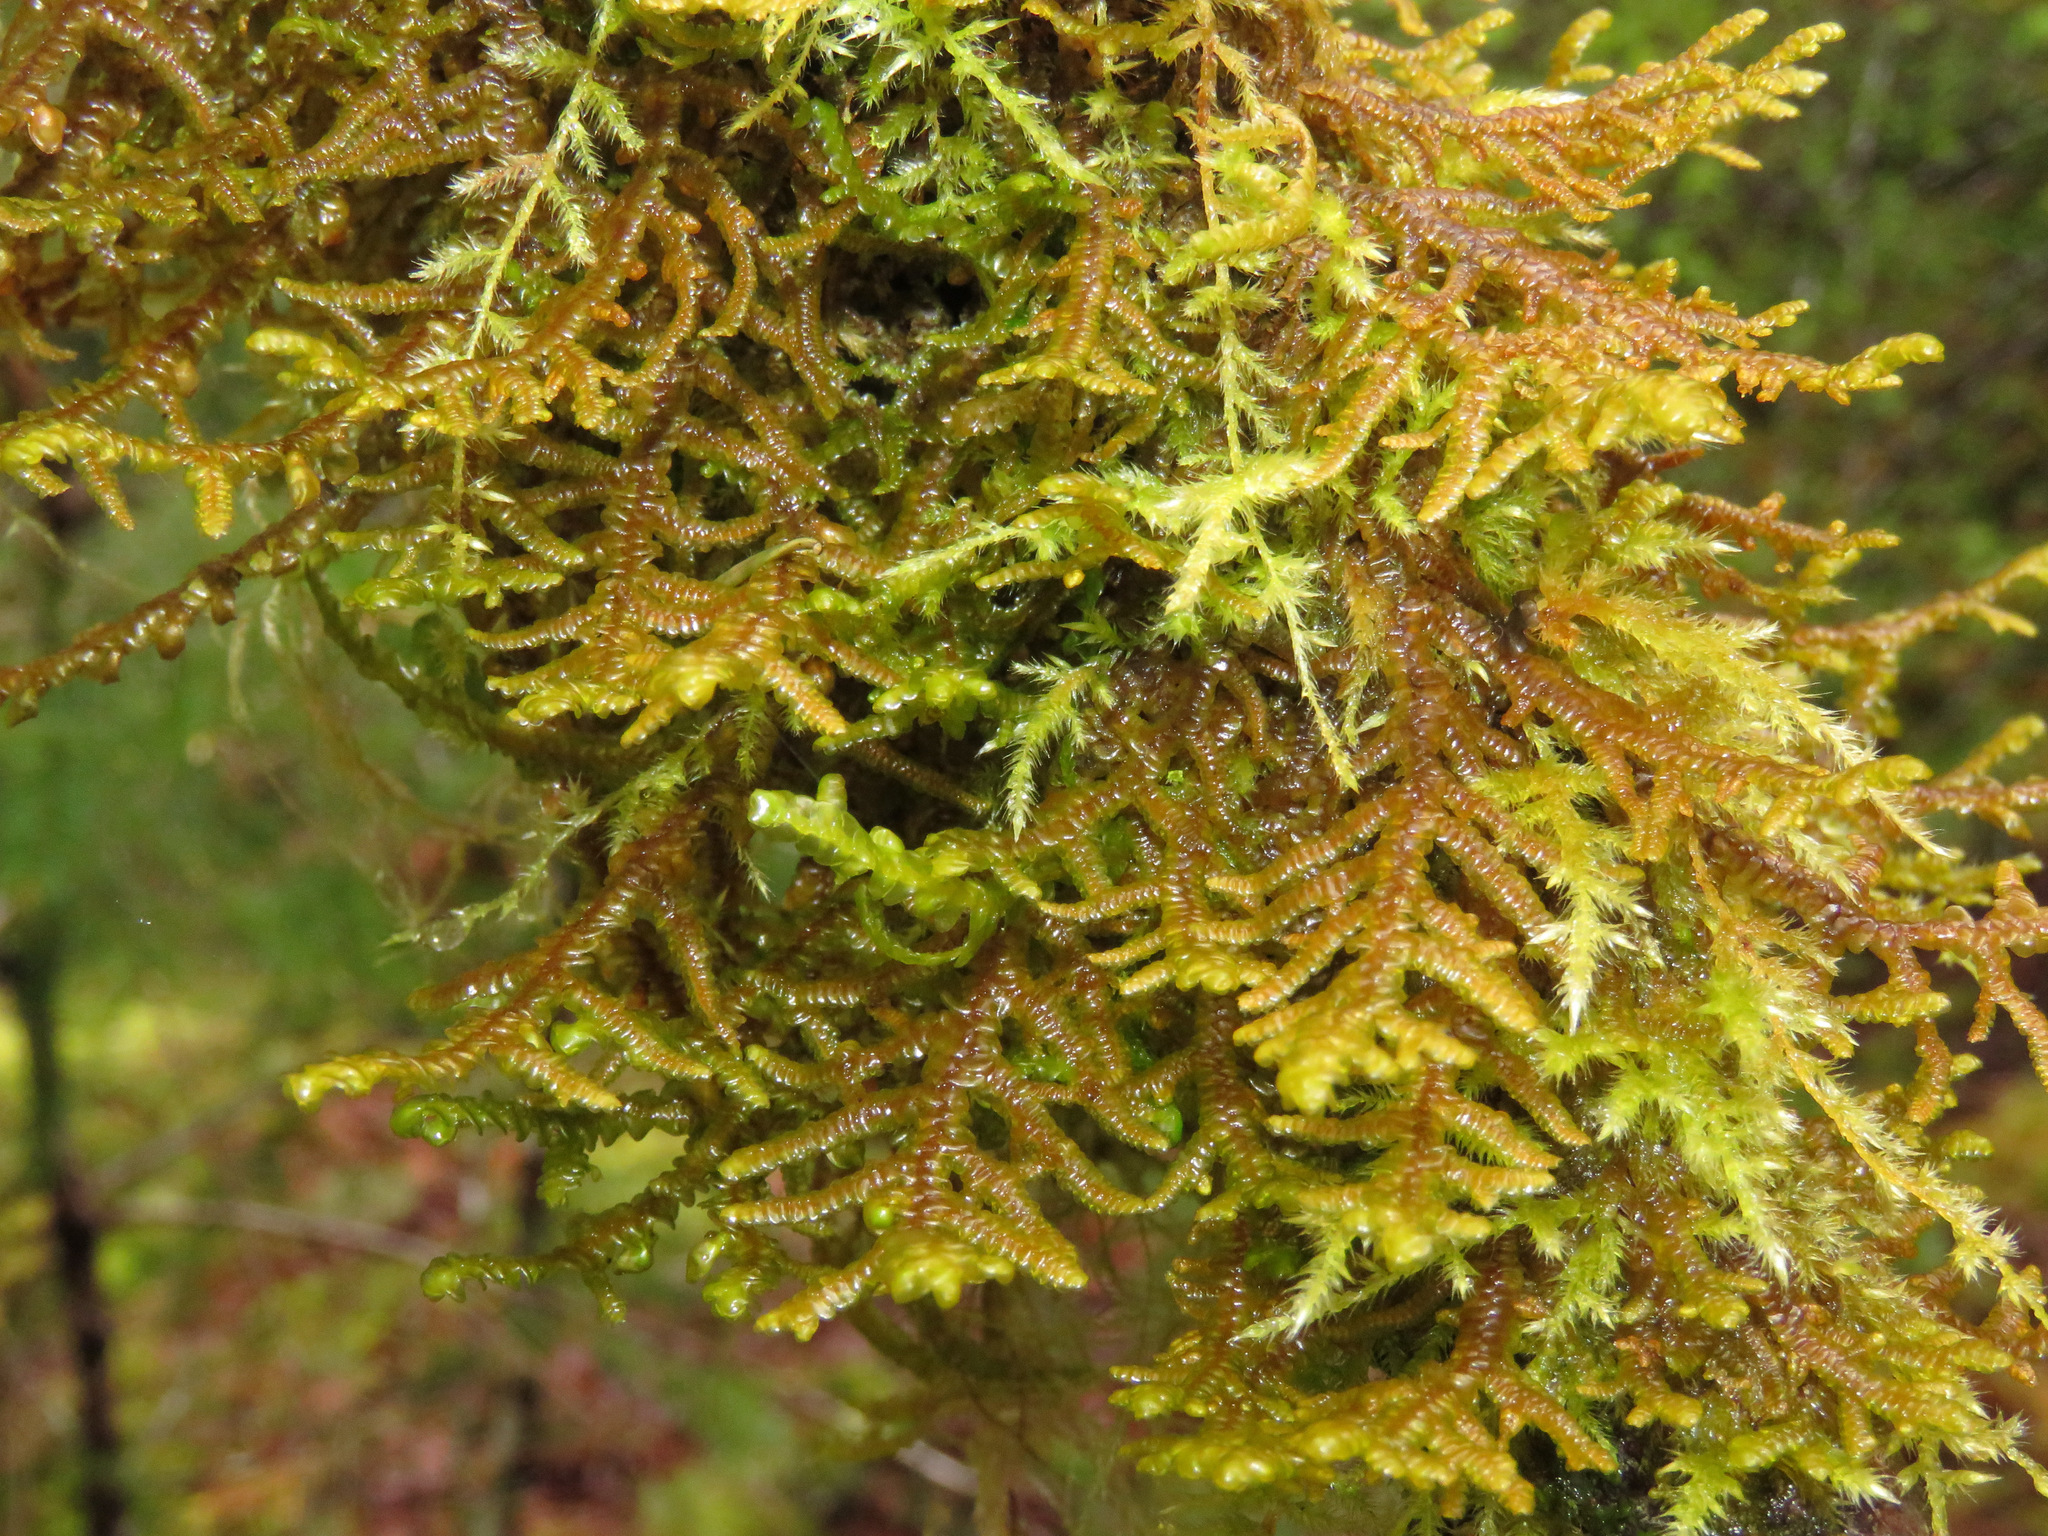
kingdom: Plantae
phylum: Marchantiophyta
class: Jungermanniopsida
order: Porellales
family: Porellaceae
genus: Porella
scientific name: Porella navicularis
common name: Tree ruffle liverwort
